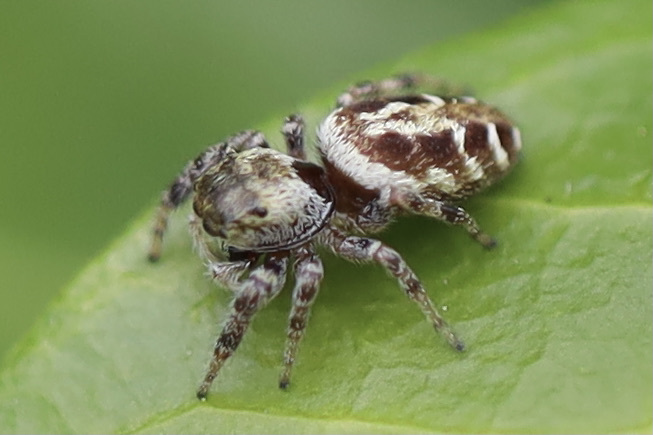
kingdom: Animalia
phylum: Arthropoda
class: Arachnida
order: Araneae
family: Salticidae
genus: Metaphidippus
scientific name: Metaphidippus manni
